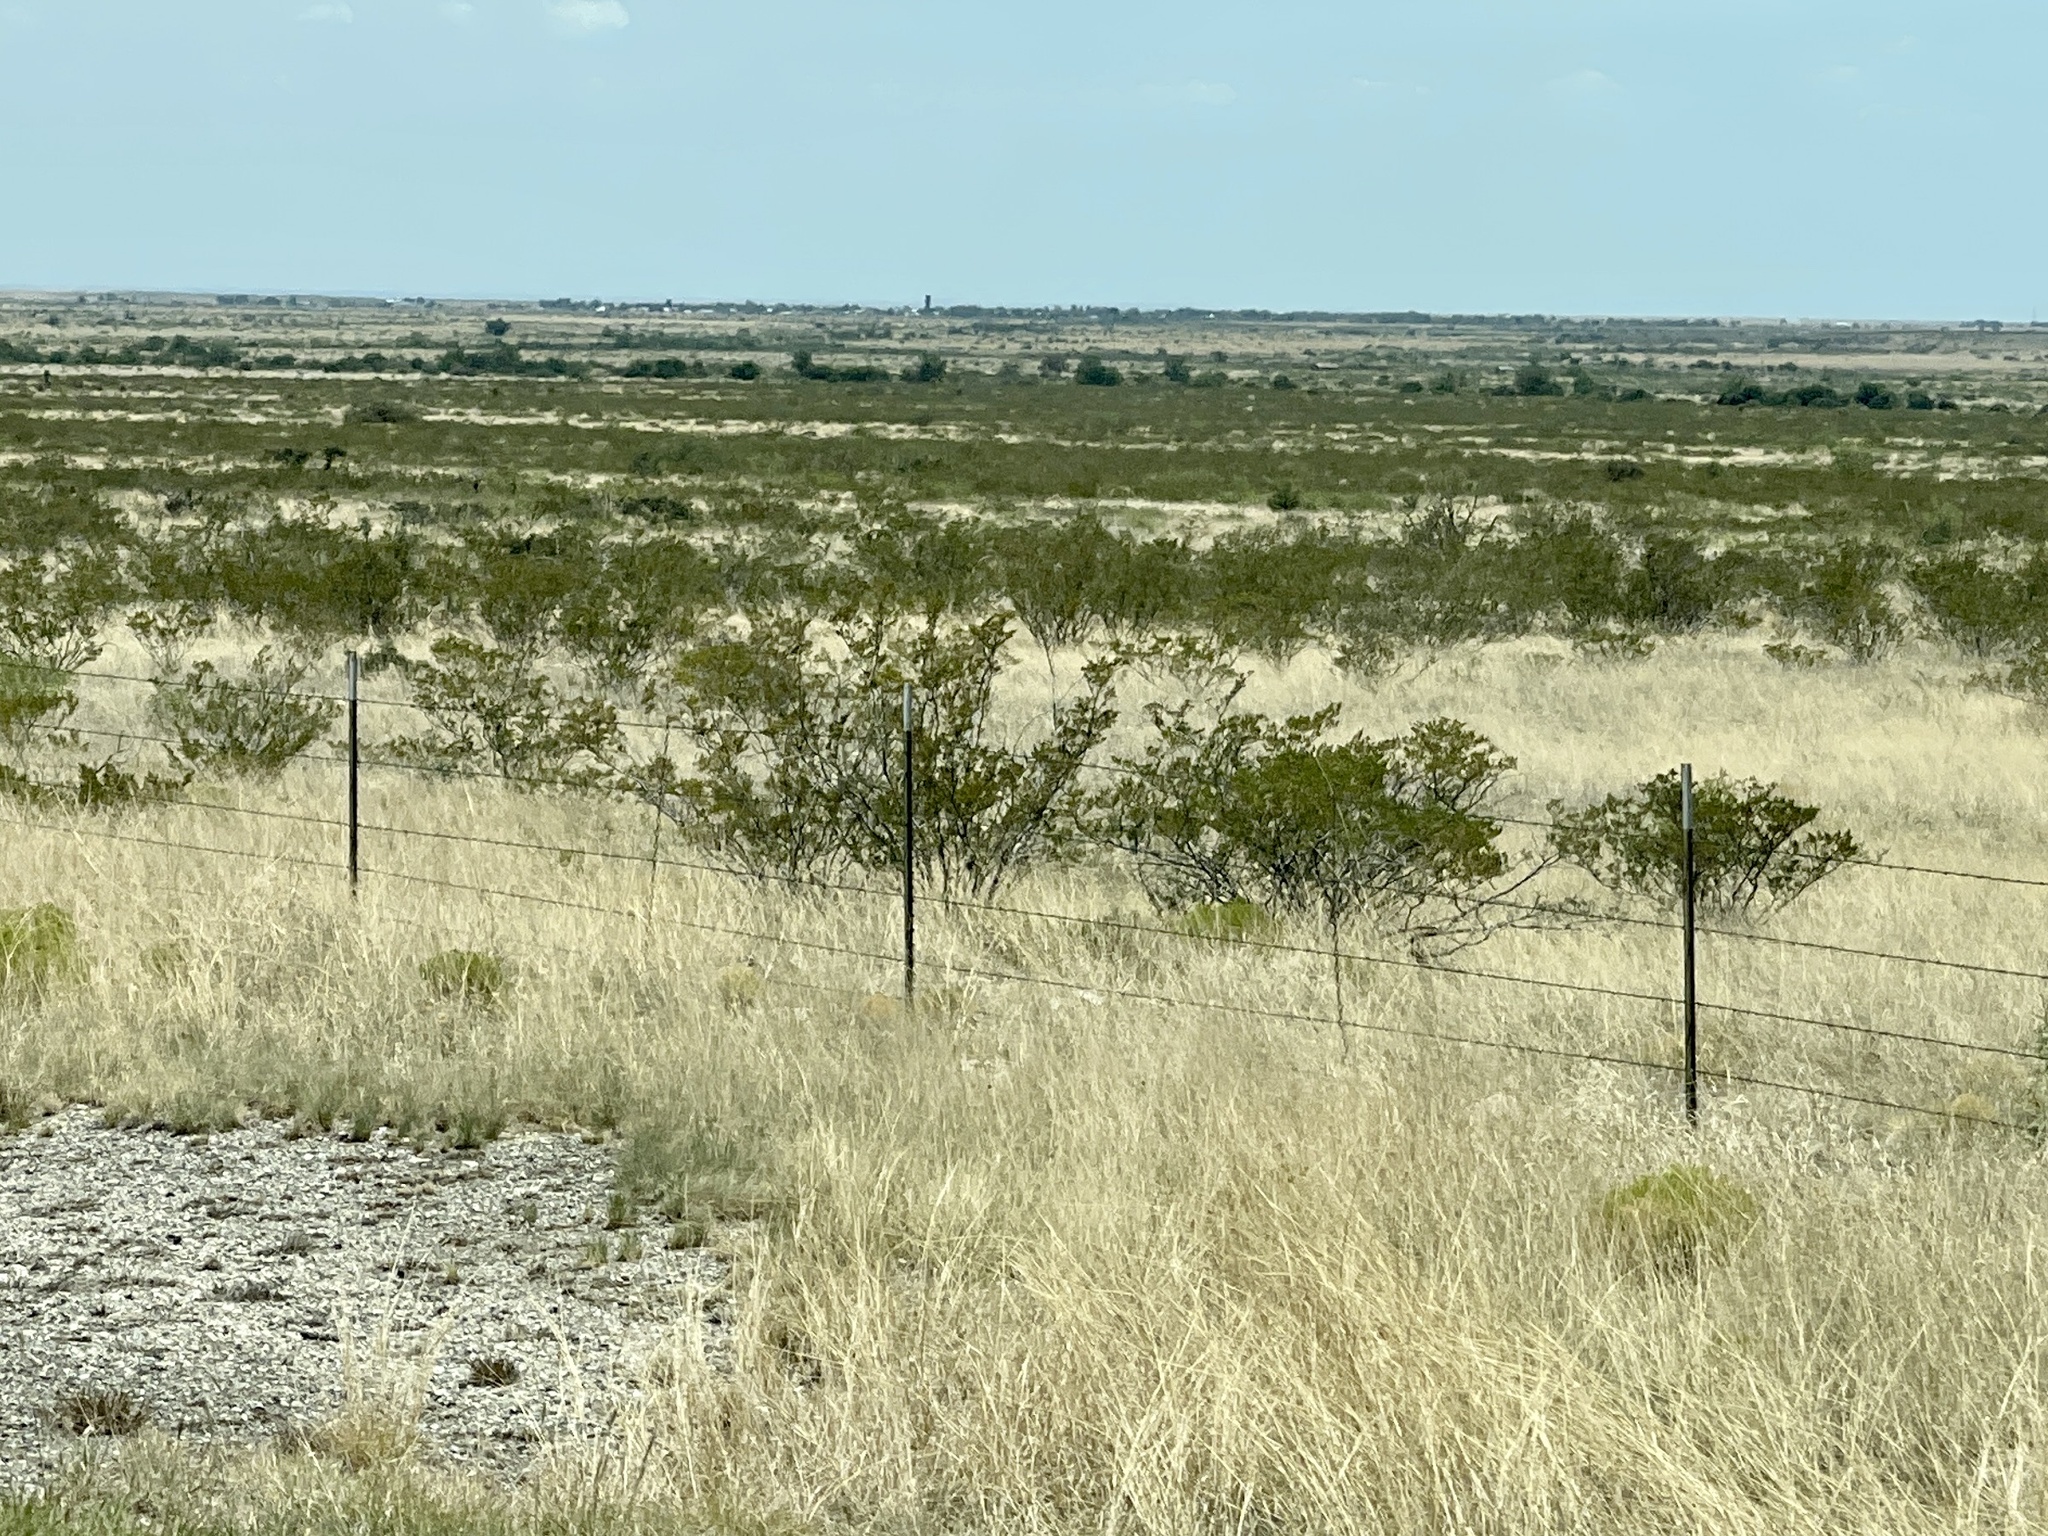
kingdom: Plantae
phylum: Tracheophyta
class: Magnoliopsida
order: Zygophyllales
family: Zygophyllaceae
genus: Larrea
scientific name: Larrea tridentata
